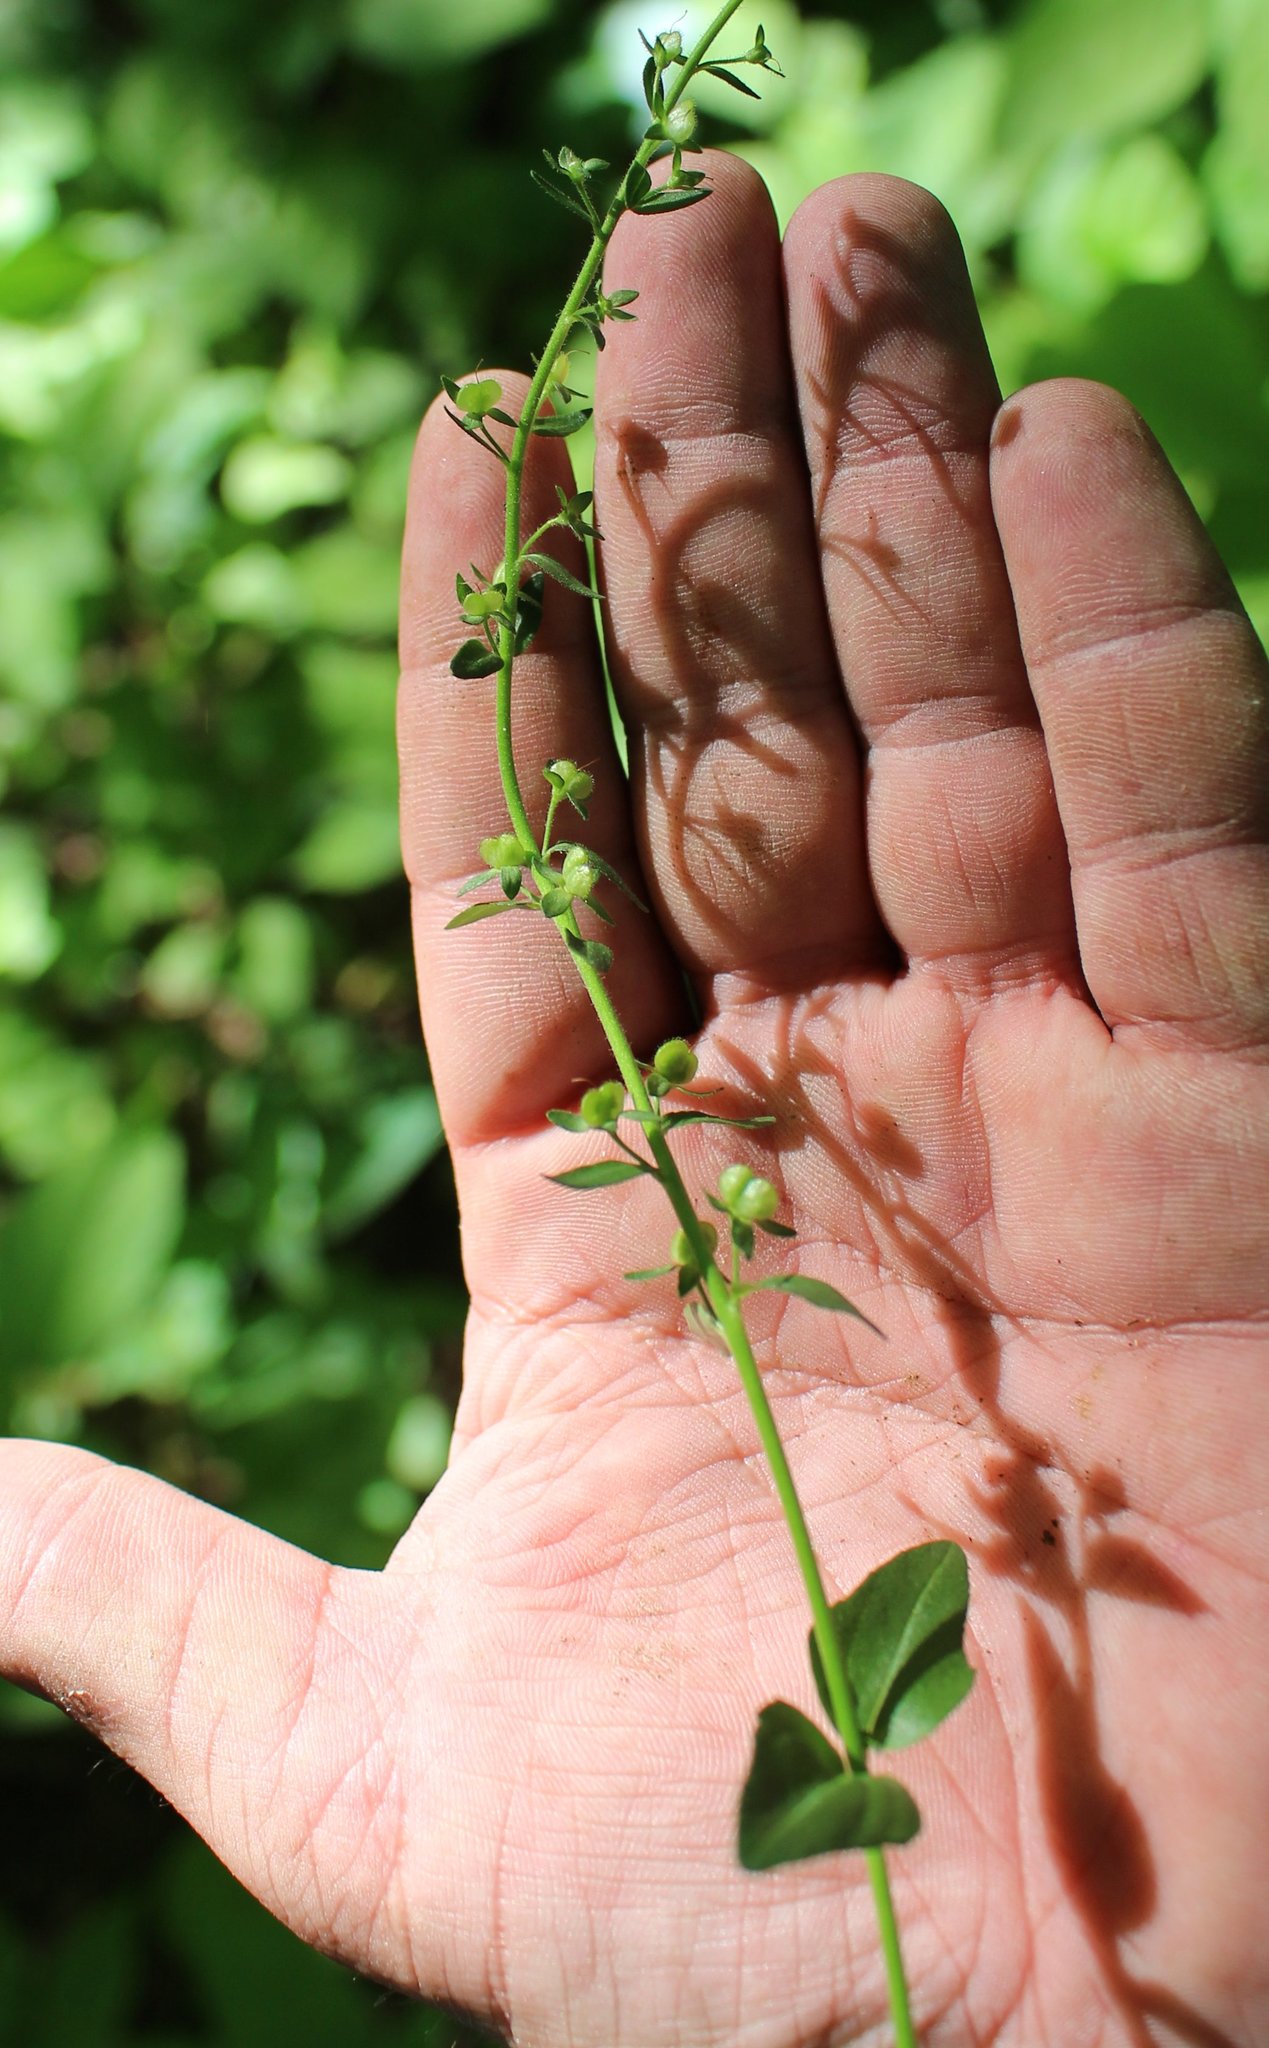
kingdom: Plantae
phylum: Tracheophyta
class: Magnoliopsida
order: Lamiales
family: Plantaginaceae
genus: Veronica
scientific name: Veronica serpyllifolia
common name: Thyme-leaved speedwell
